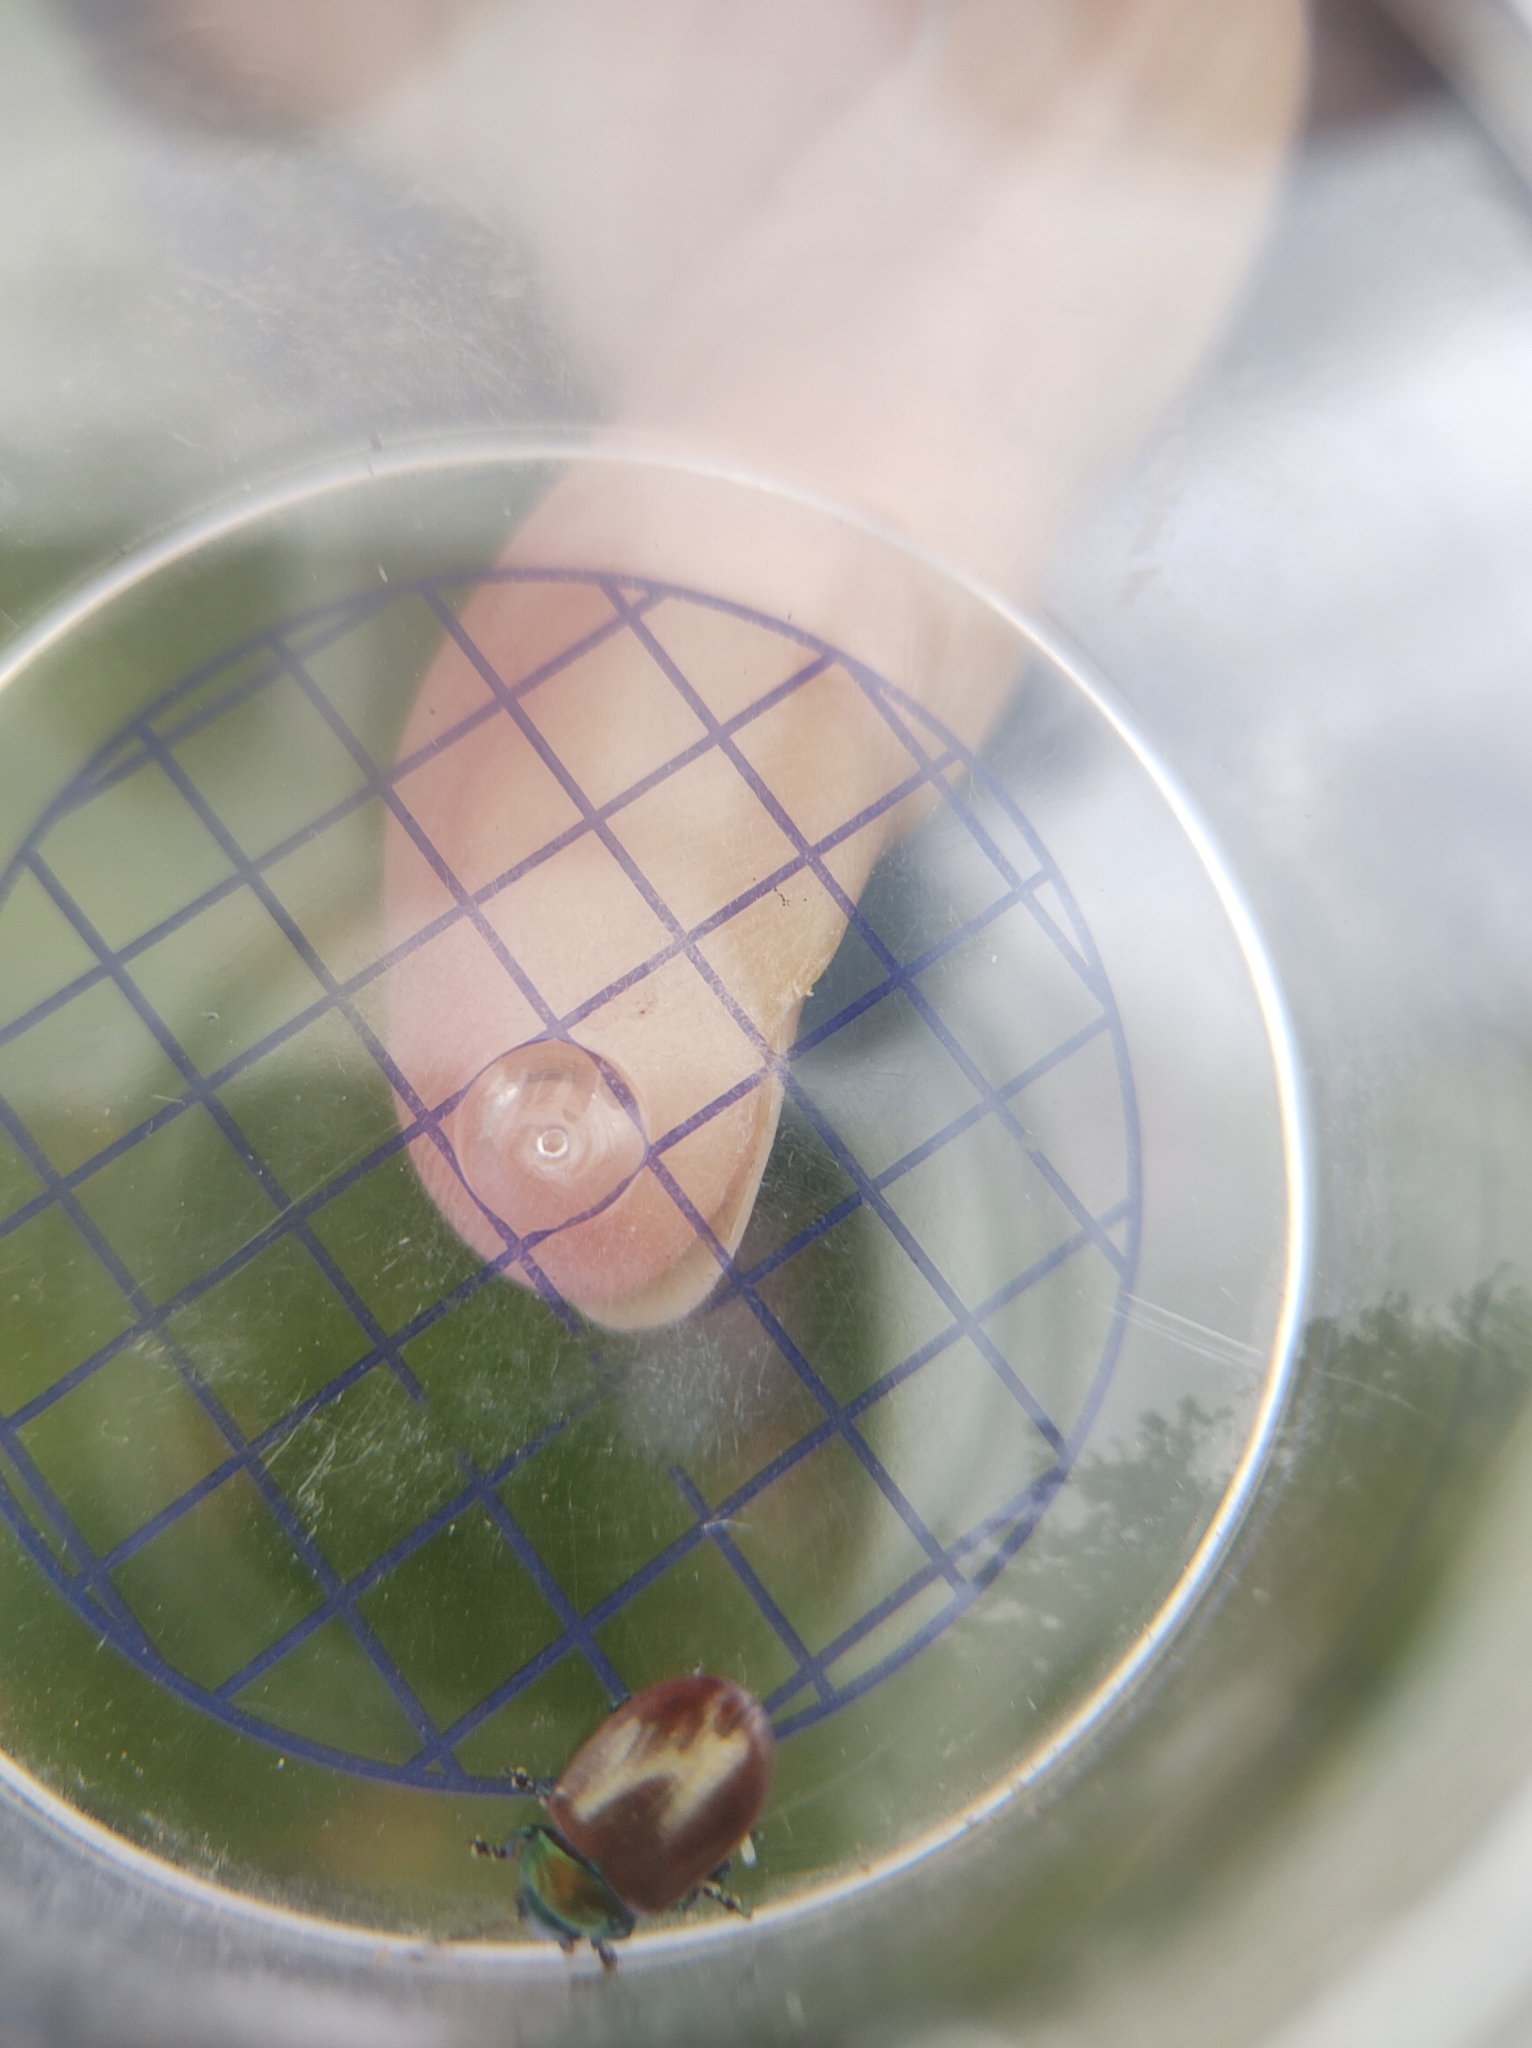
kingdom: Animalia
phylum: Arthropoda
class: Insecta
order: Coleoptera
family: Chrysomelidae
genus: Chrysomela
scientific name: Chrysomela polita
